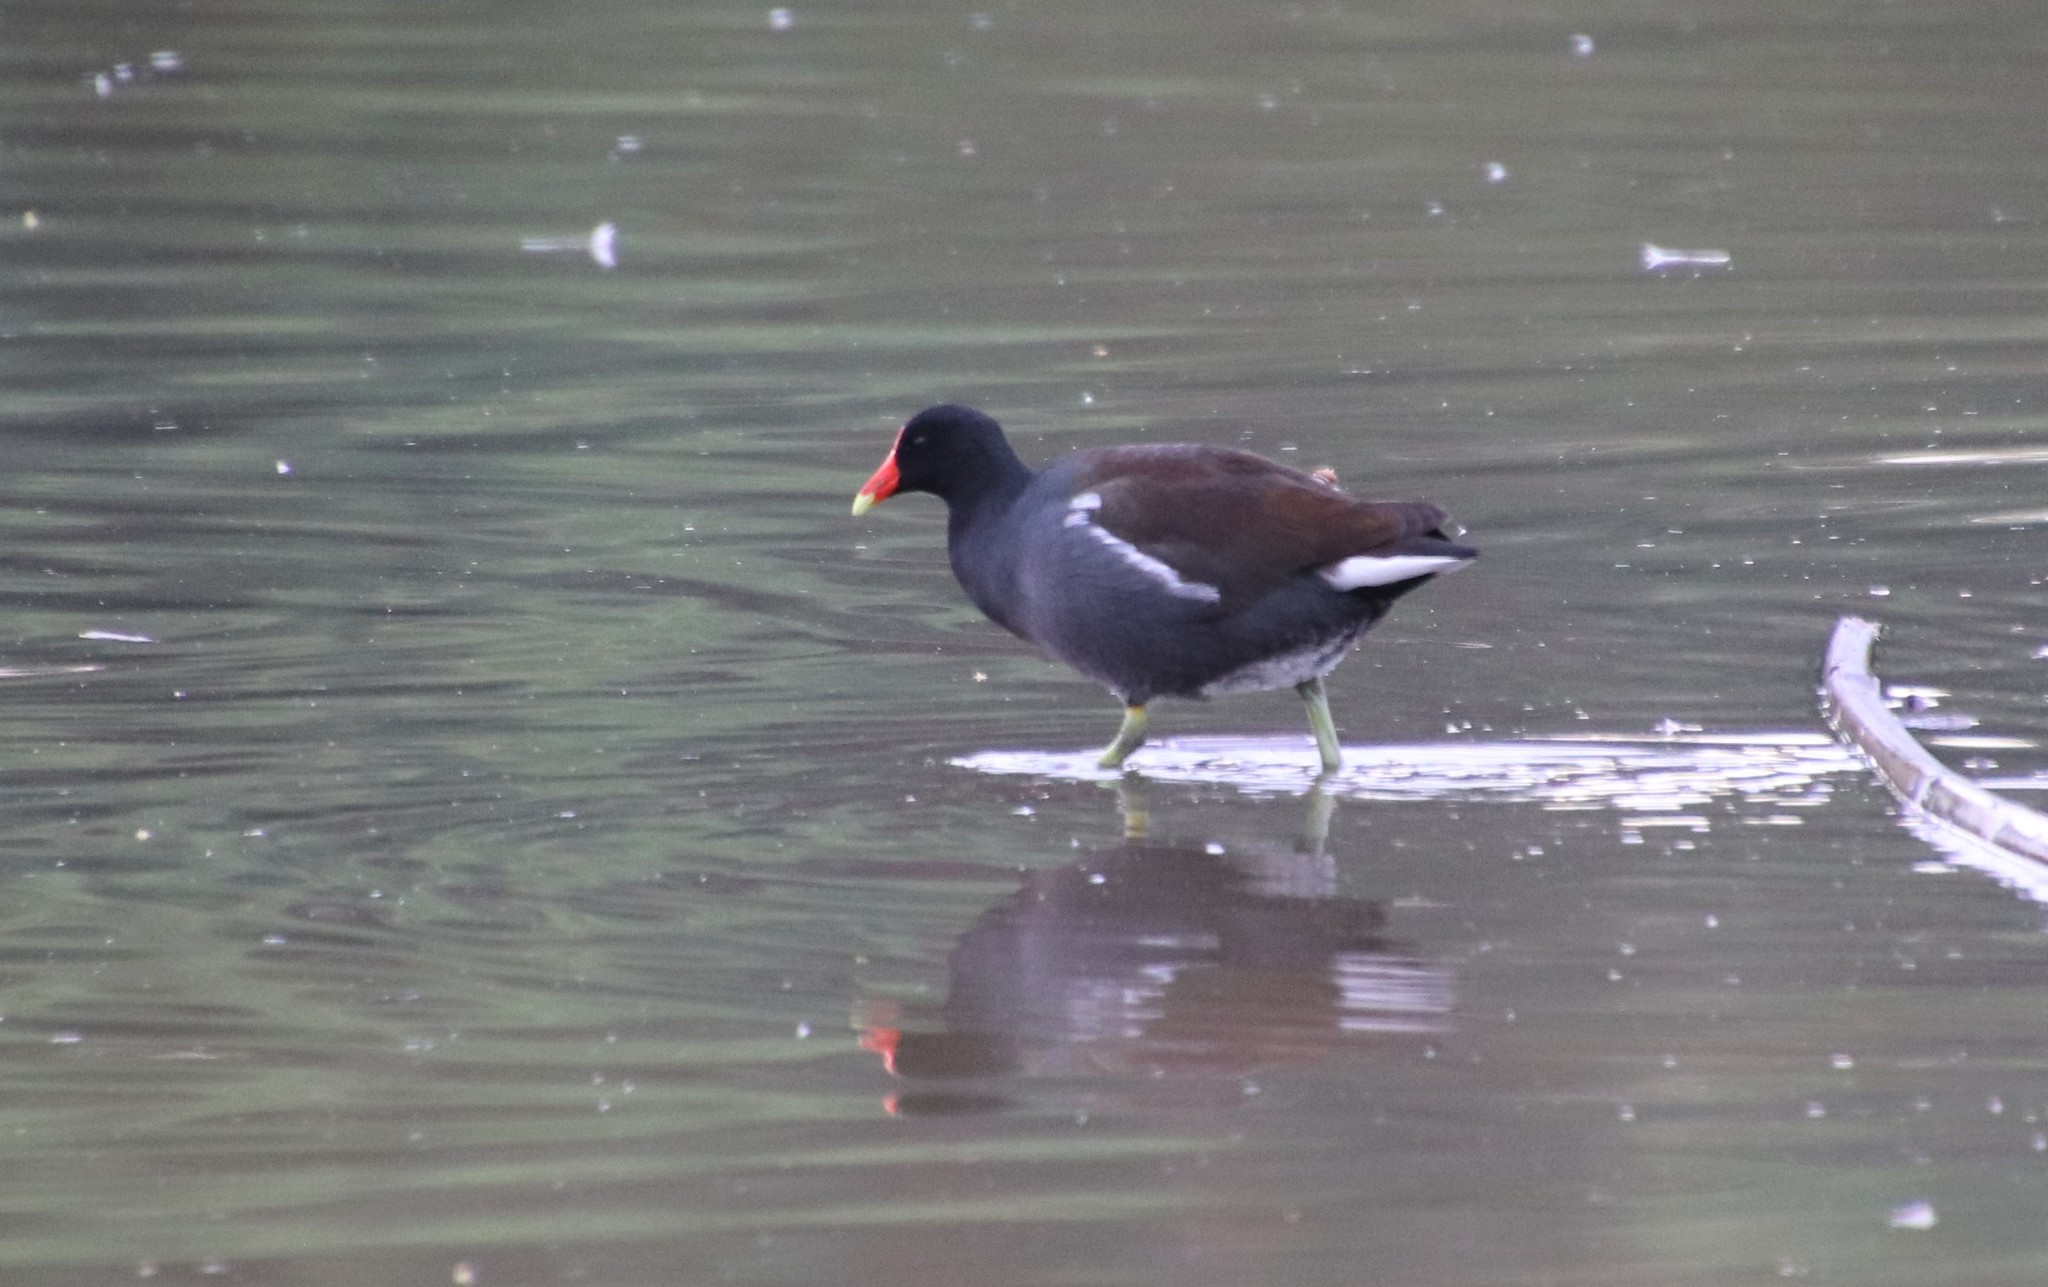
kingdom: Animalia
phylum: Chordata
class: Aves
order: Gruiformes
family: Rallidae
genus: Gallinula
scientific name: Gallinula chloropus
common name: Common moorhen
